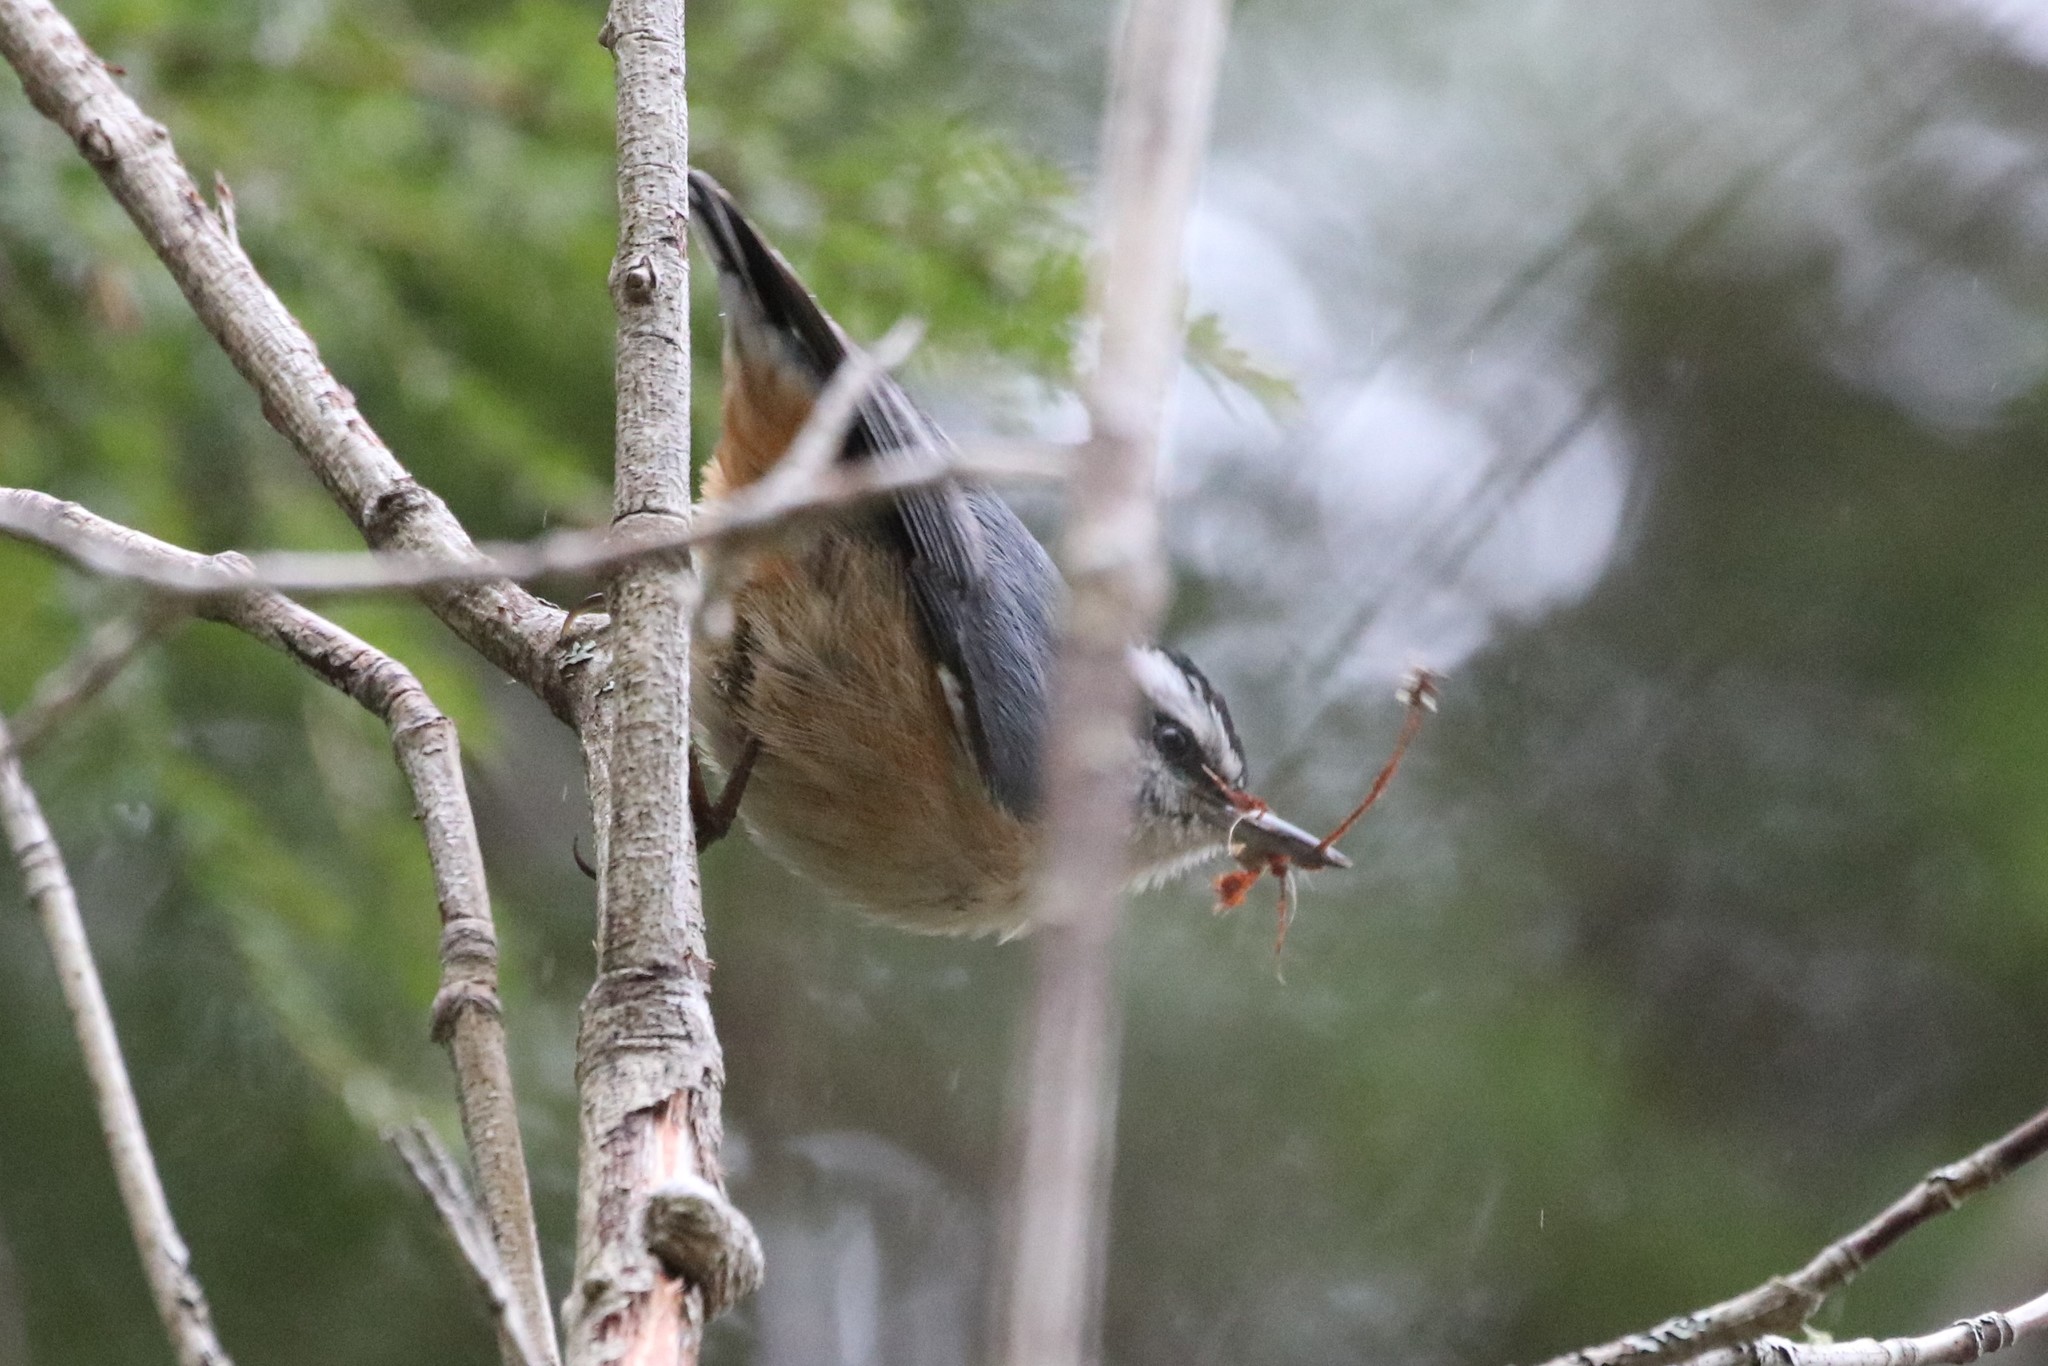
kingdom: Animalia
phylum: Chordata
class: Aves
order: Passeriformes
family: Sittidae
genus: Sitta
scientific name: Sitta canadensis
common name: Red-breasted nuthatch
